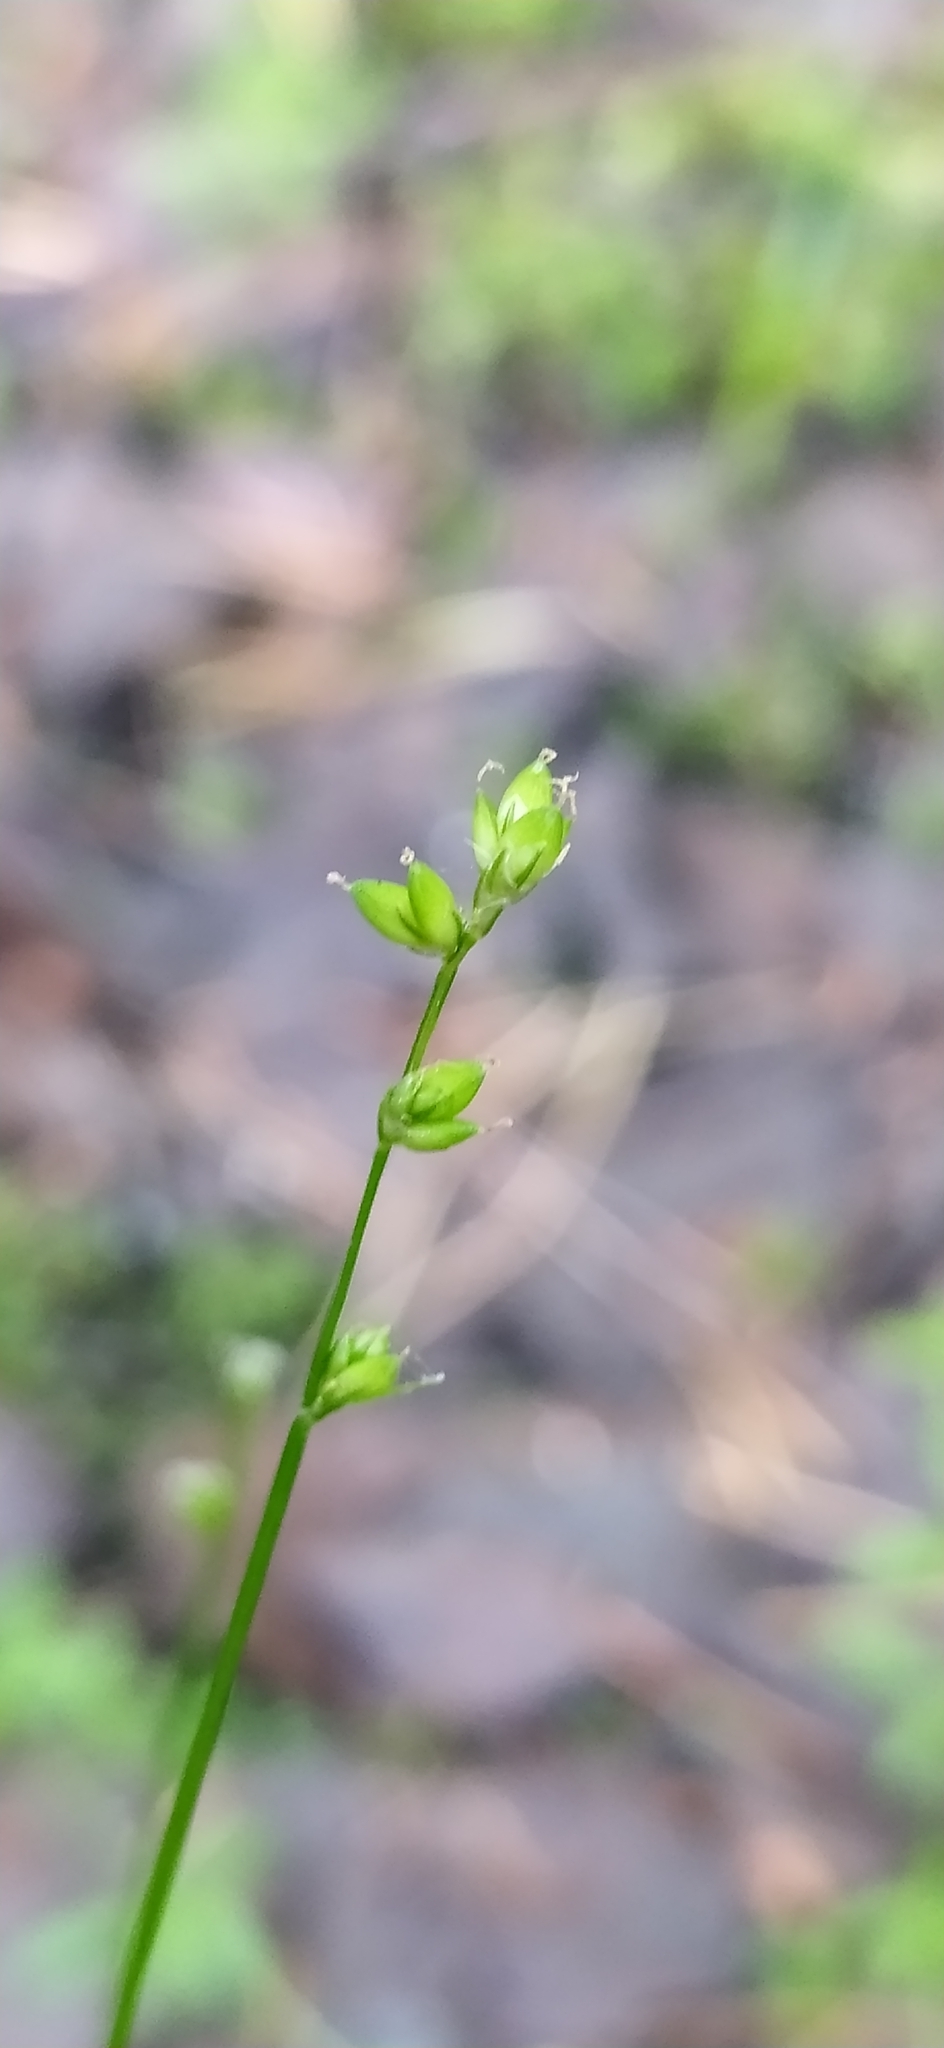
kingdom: Plantae
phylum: Tracheophyta
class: Liliopsida
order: Poales
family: Cyperaceae
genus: Carex
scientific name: Carex disperma
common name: Short-leaved sedge
